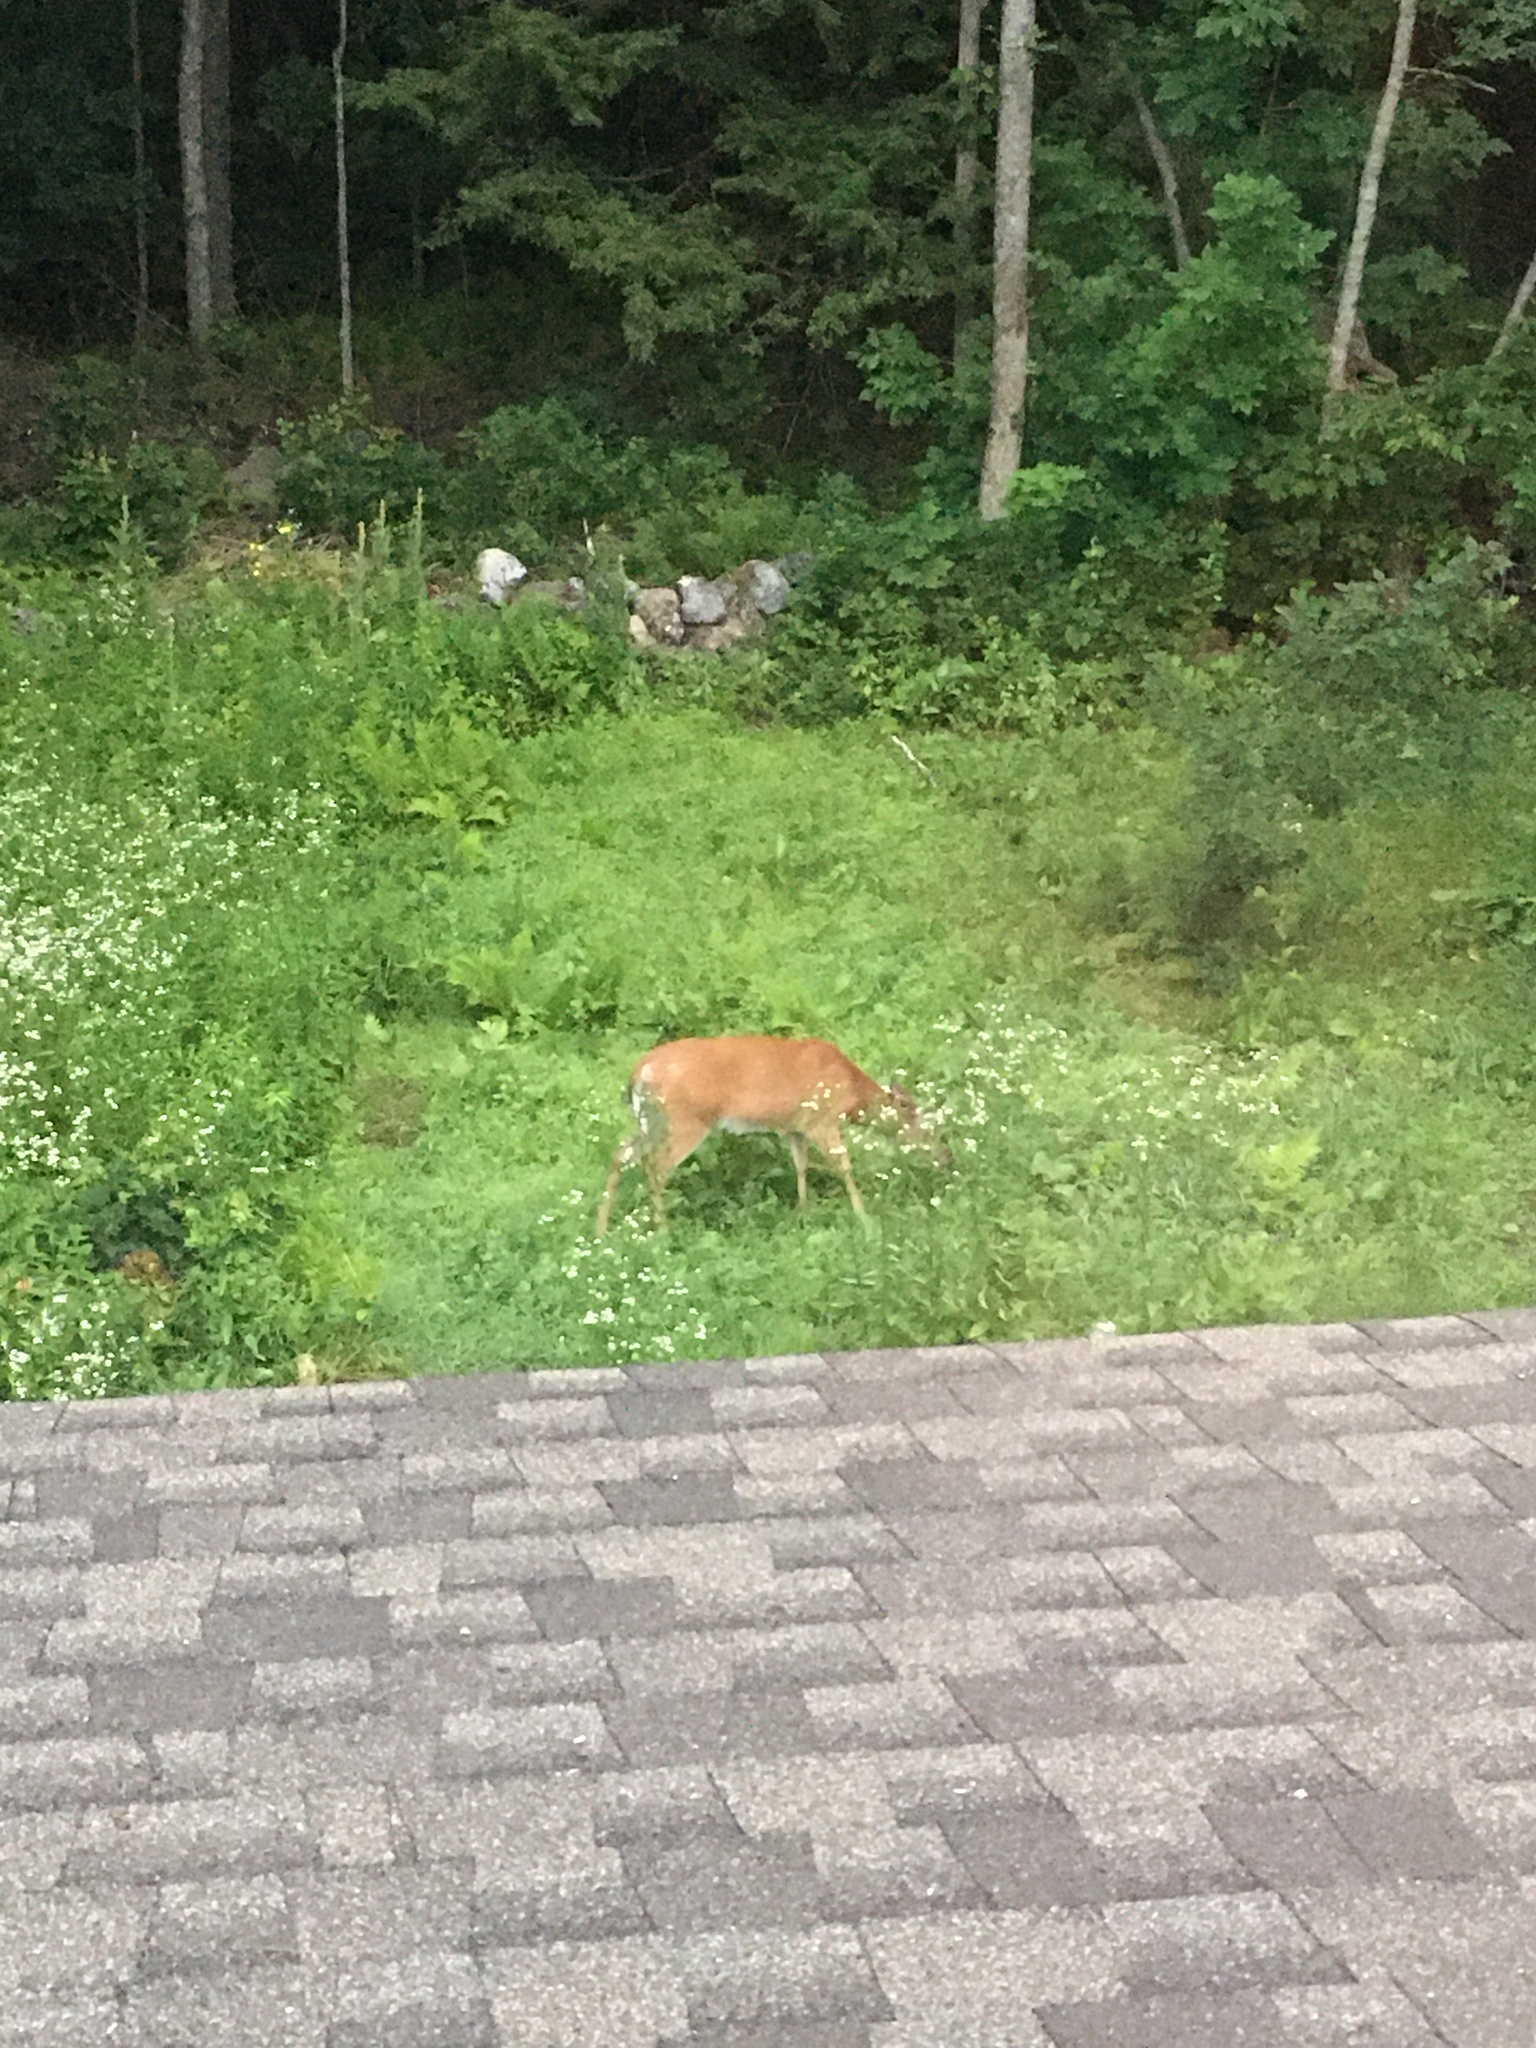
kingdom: Animalia
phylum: Chordata
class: Mammalia
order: Artiodactyla
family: Cervidae
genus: Odocoileus
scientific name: Odocoileus virginianus
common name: White-tailed deer
